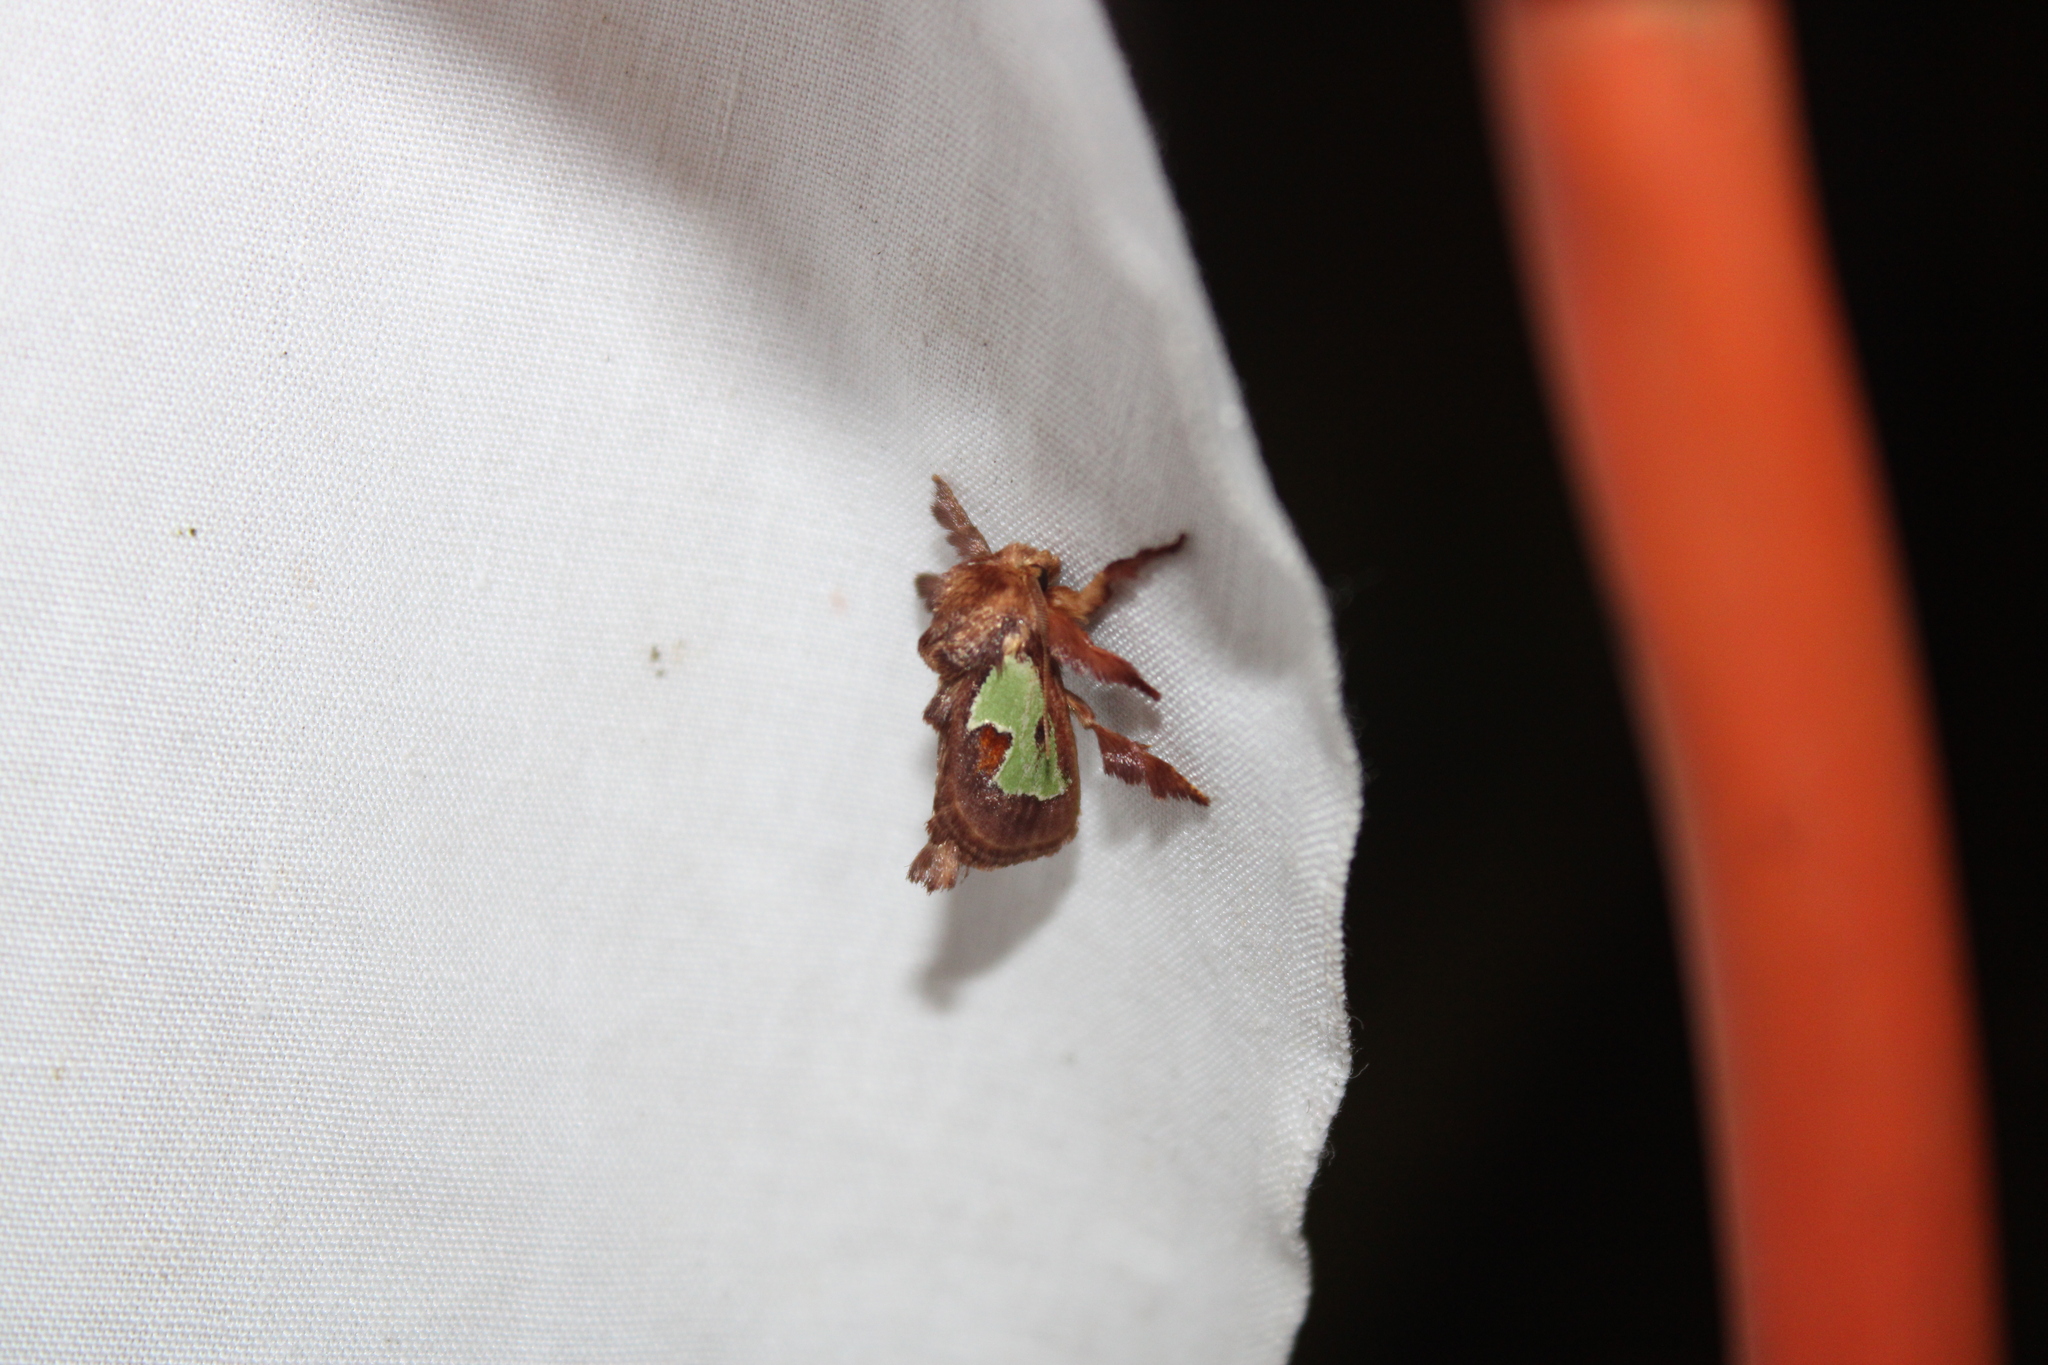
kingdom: Animalia
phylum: Arthropoda
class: Insecta
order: Lepidoptera
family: Limacodidae
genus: Euclea
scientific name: Euclea delphinii
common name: Spiny oak-slug moth
